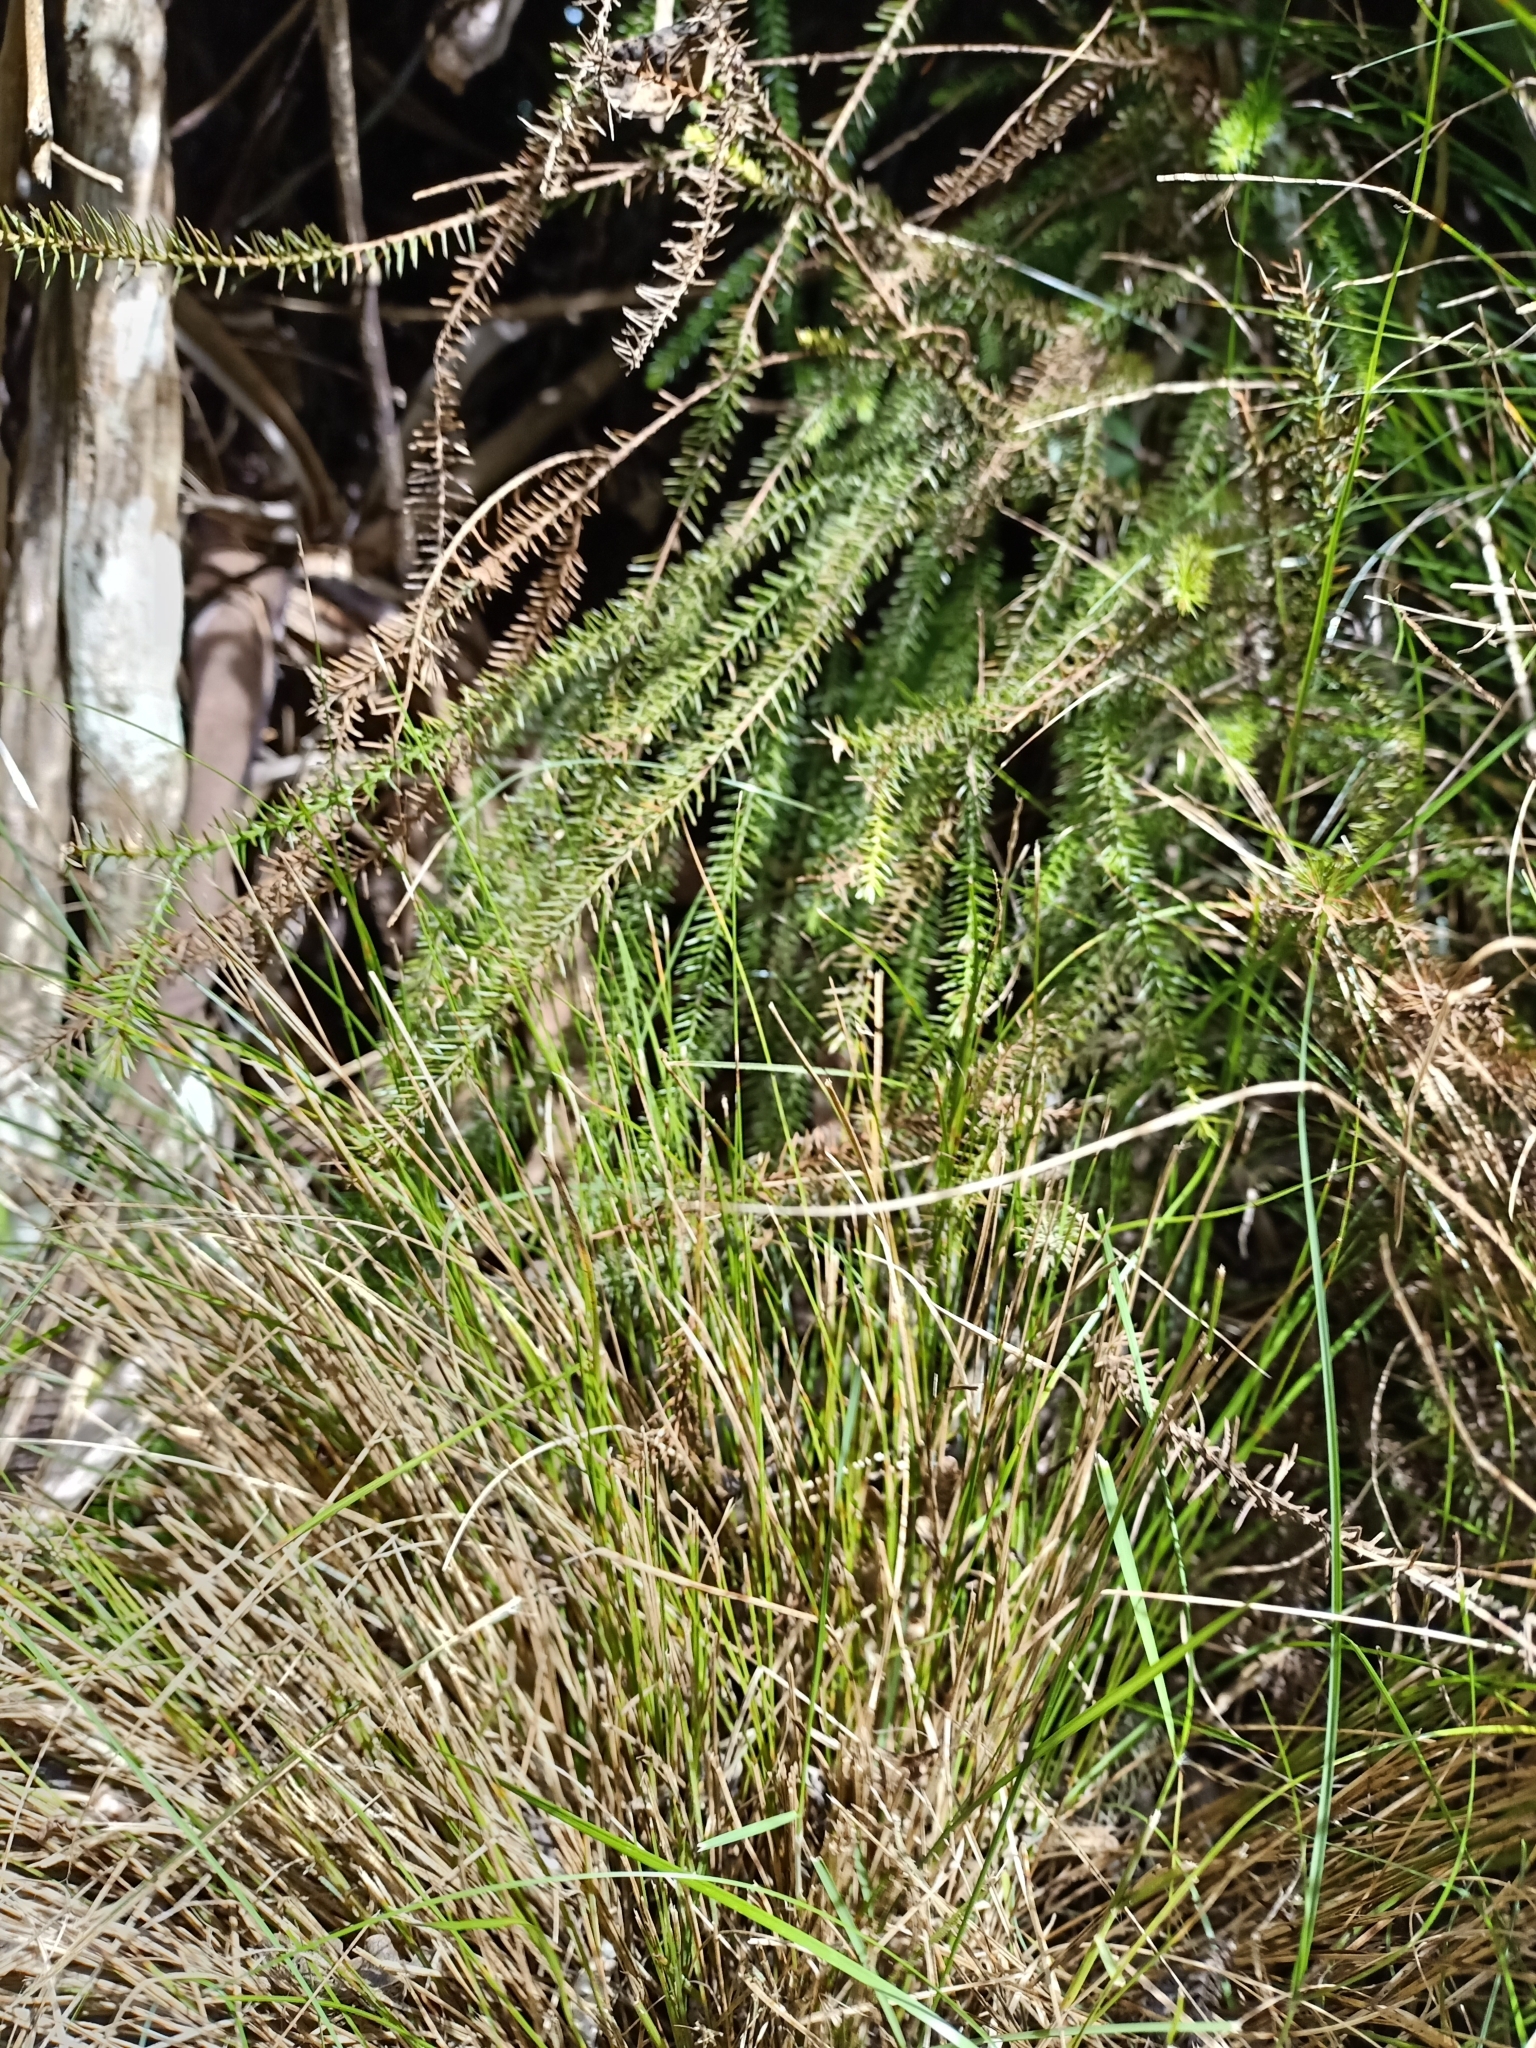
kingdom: Plantae
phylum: Tracheophyta
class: Pinopsida
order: Pinales
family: Podocarpaceae
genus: Dacrydium
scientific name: Dacrydium cupressinum
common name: Red pine
